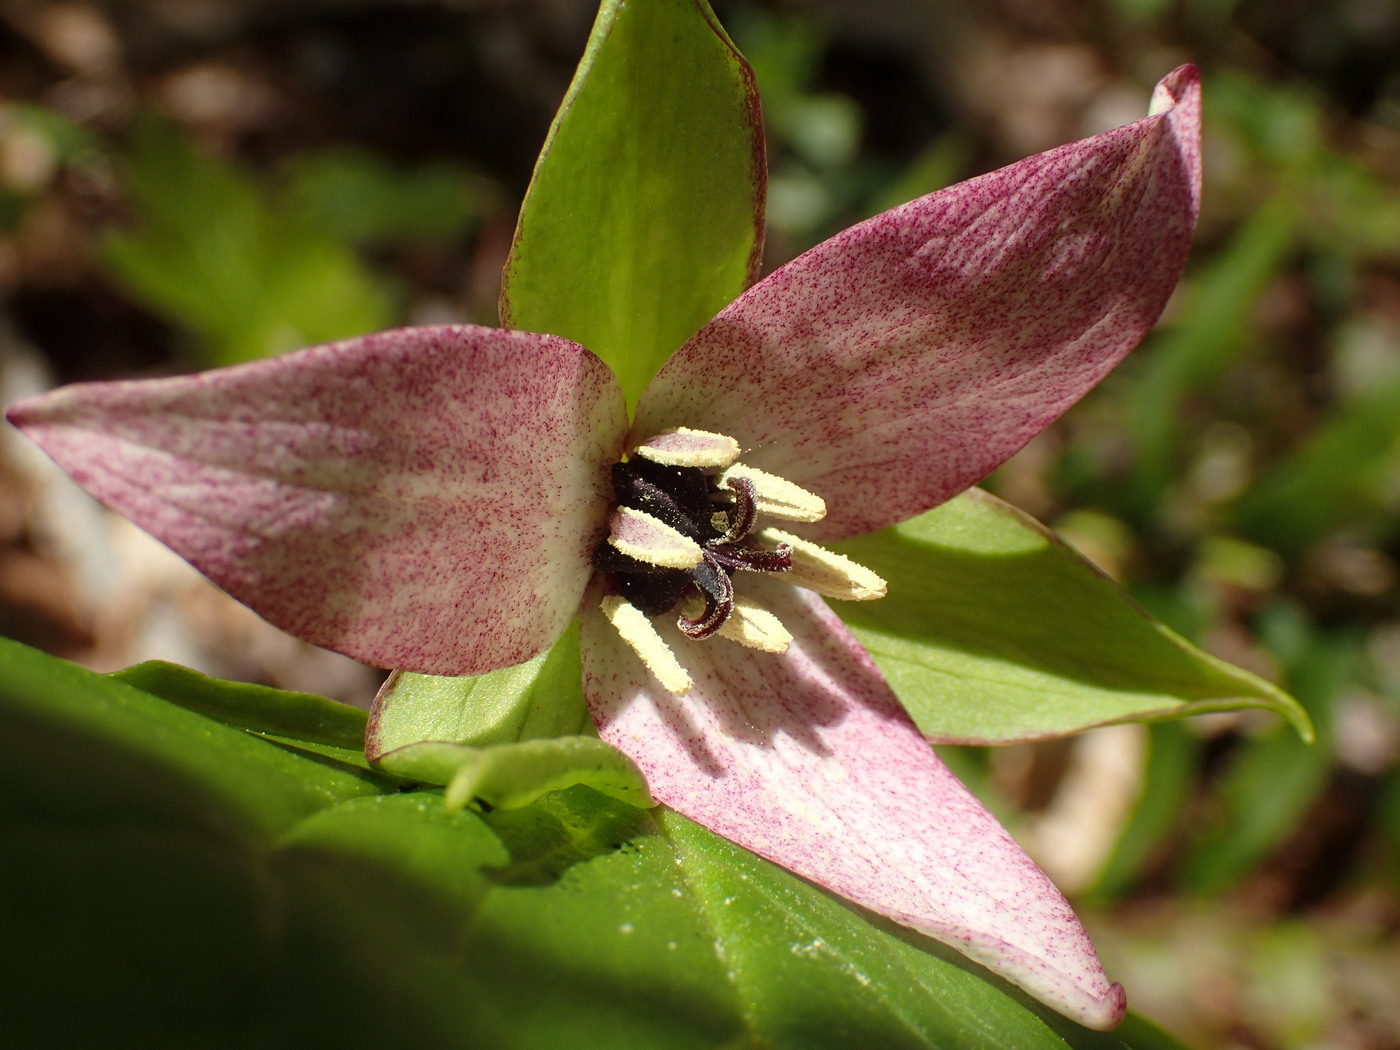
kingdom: Plantae
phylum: Tracheophyta
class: Liliopsida
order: Liliales
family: Melanthiaceae
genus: Trillium
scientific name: Trillium erectum
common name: Purple trillium
